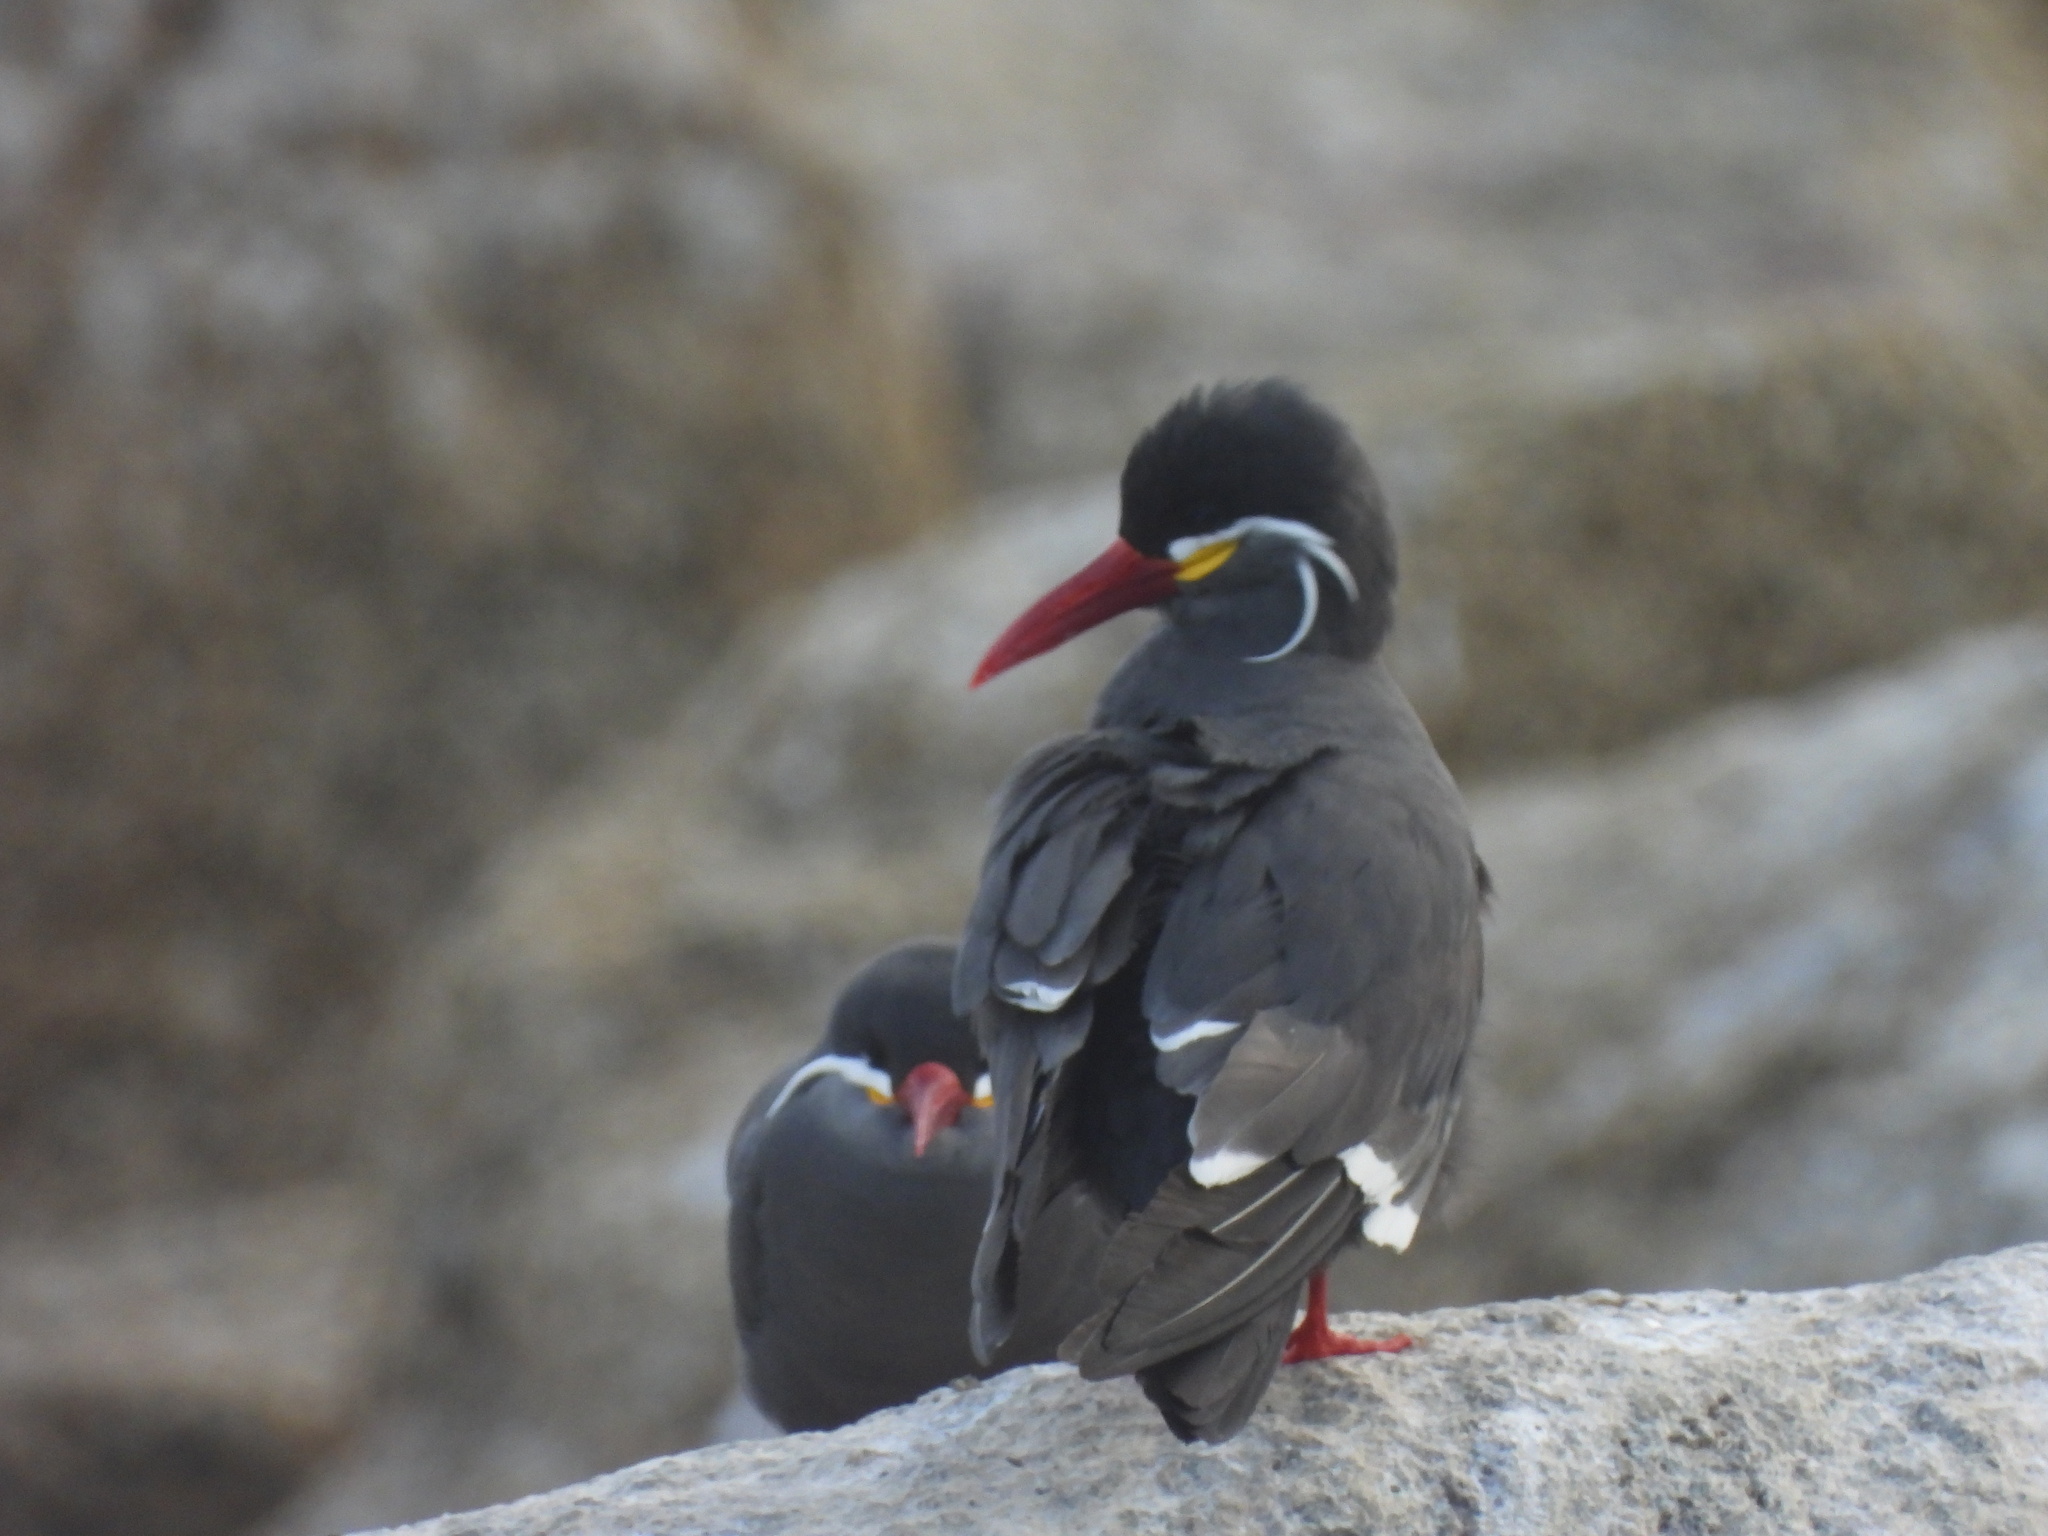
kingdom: Animalia
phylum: Chordata
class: Aves
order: Charadriiformes
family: Laridae
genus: Larosterna
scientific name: Larosterna inca
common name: Inca tern
